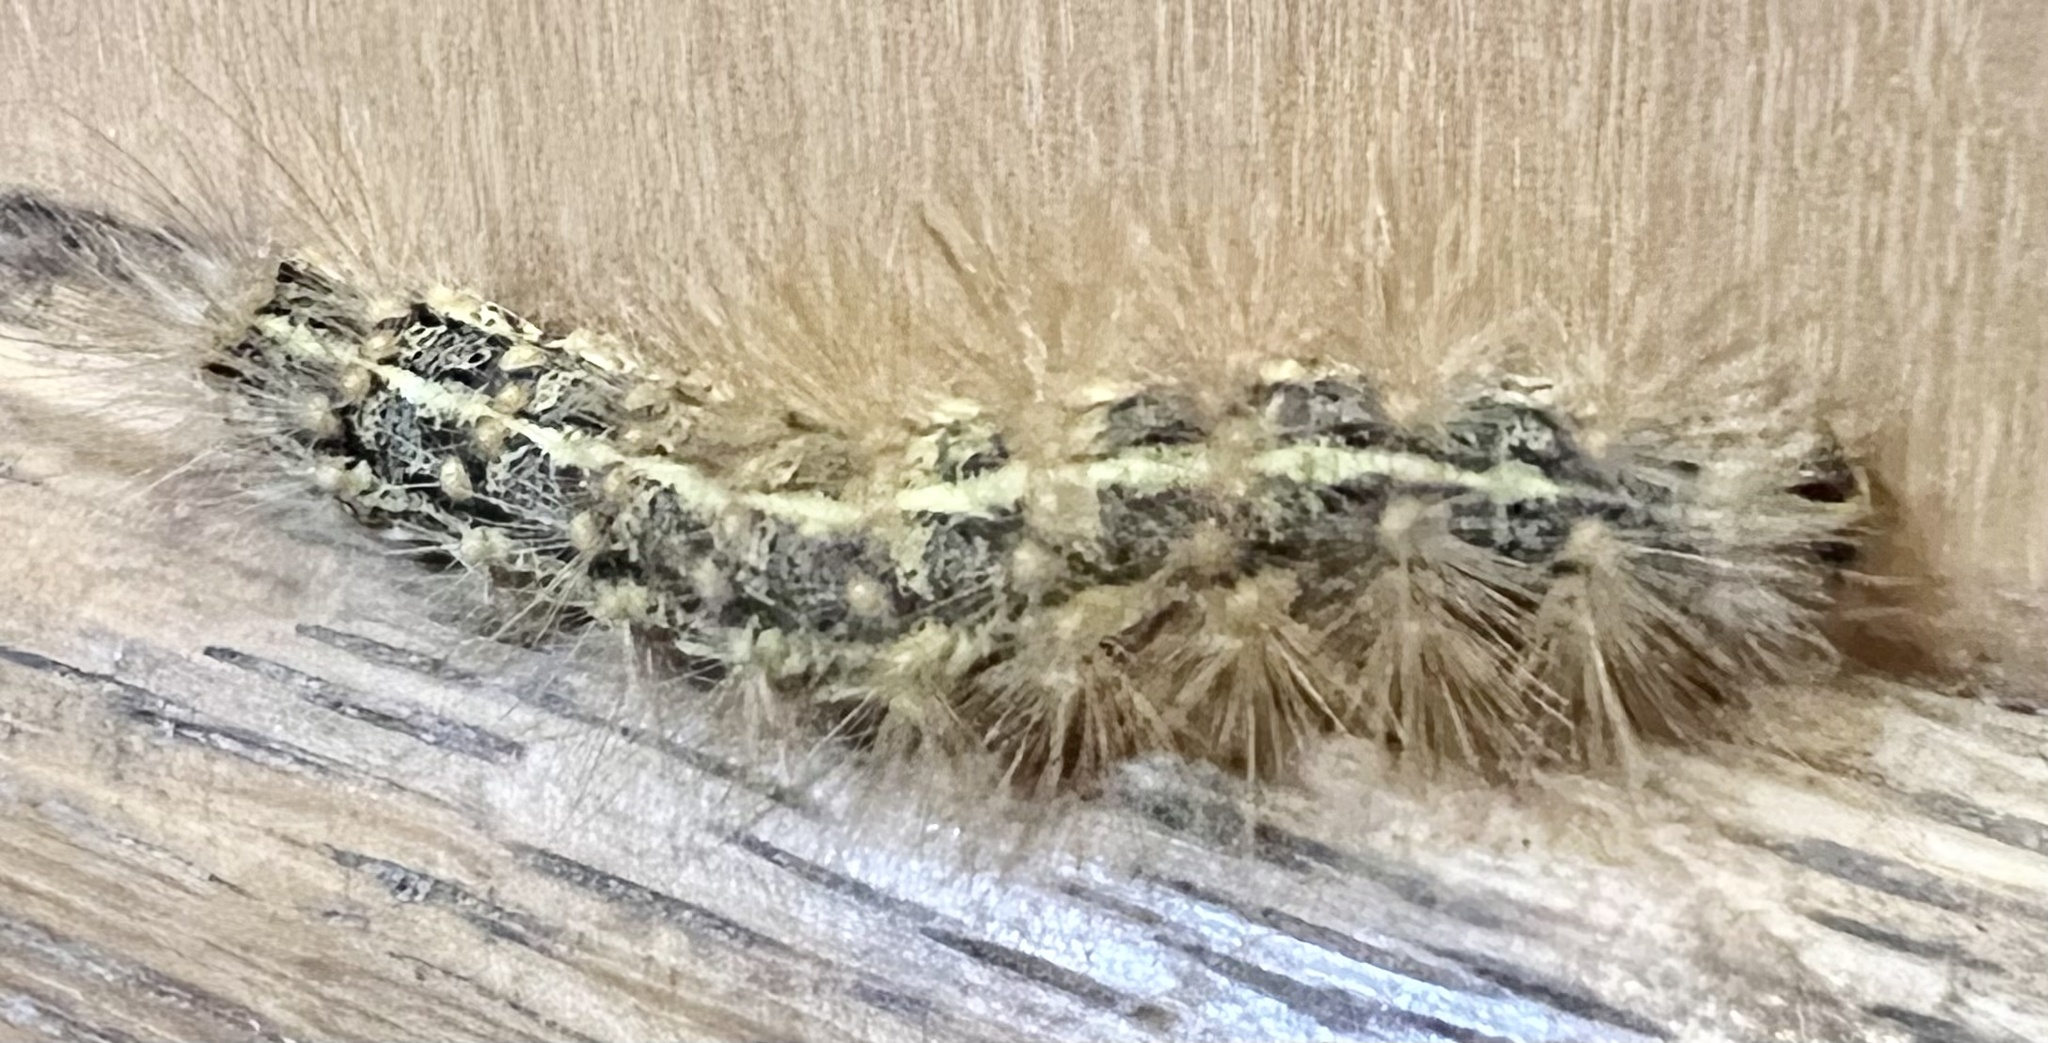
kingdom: Animalia
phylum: Arthropoda
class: Insecta
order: Lepidoptera
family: Erebidae
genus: Estigmene
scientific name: Estigmene acrea
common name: Salt marsh moth
